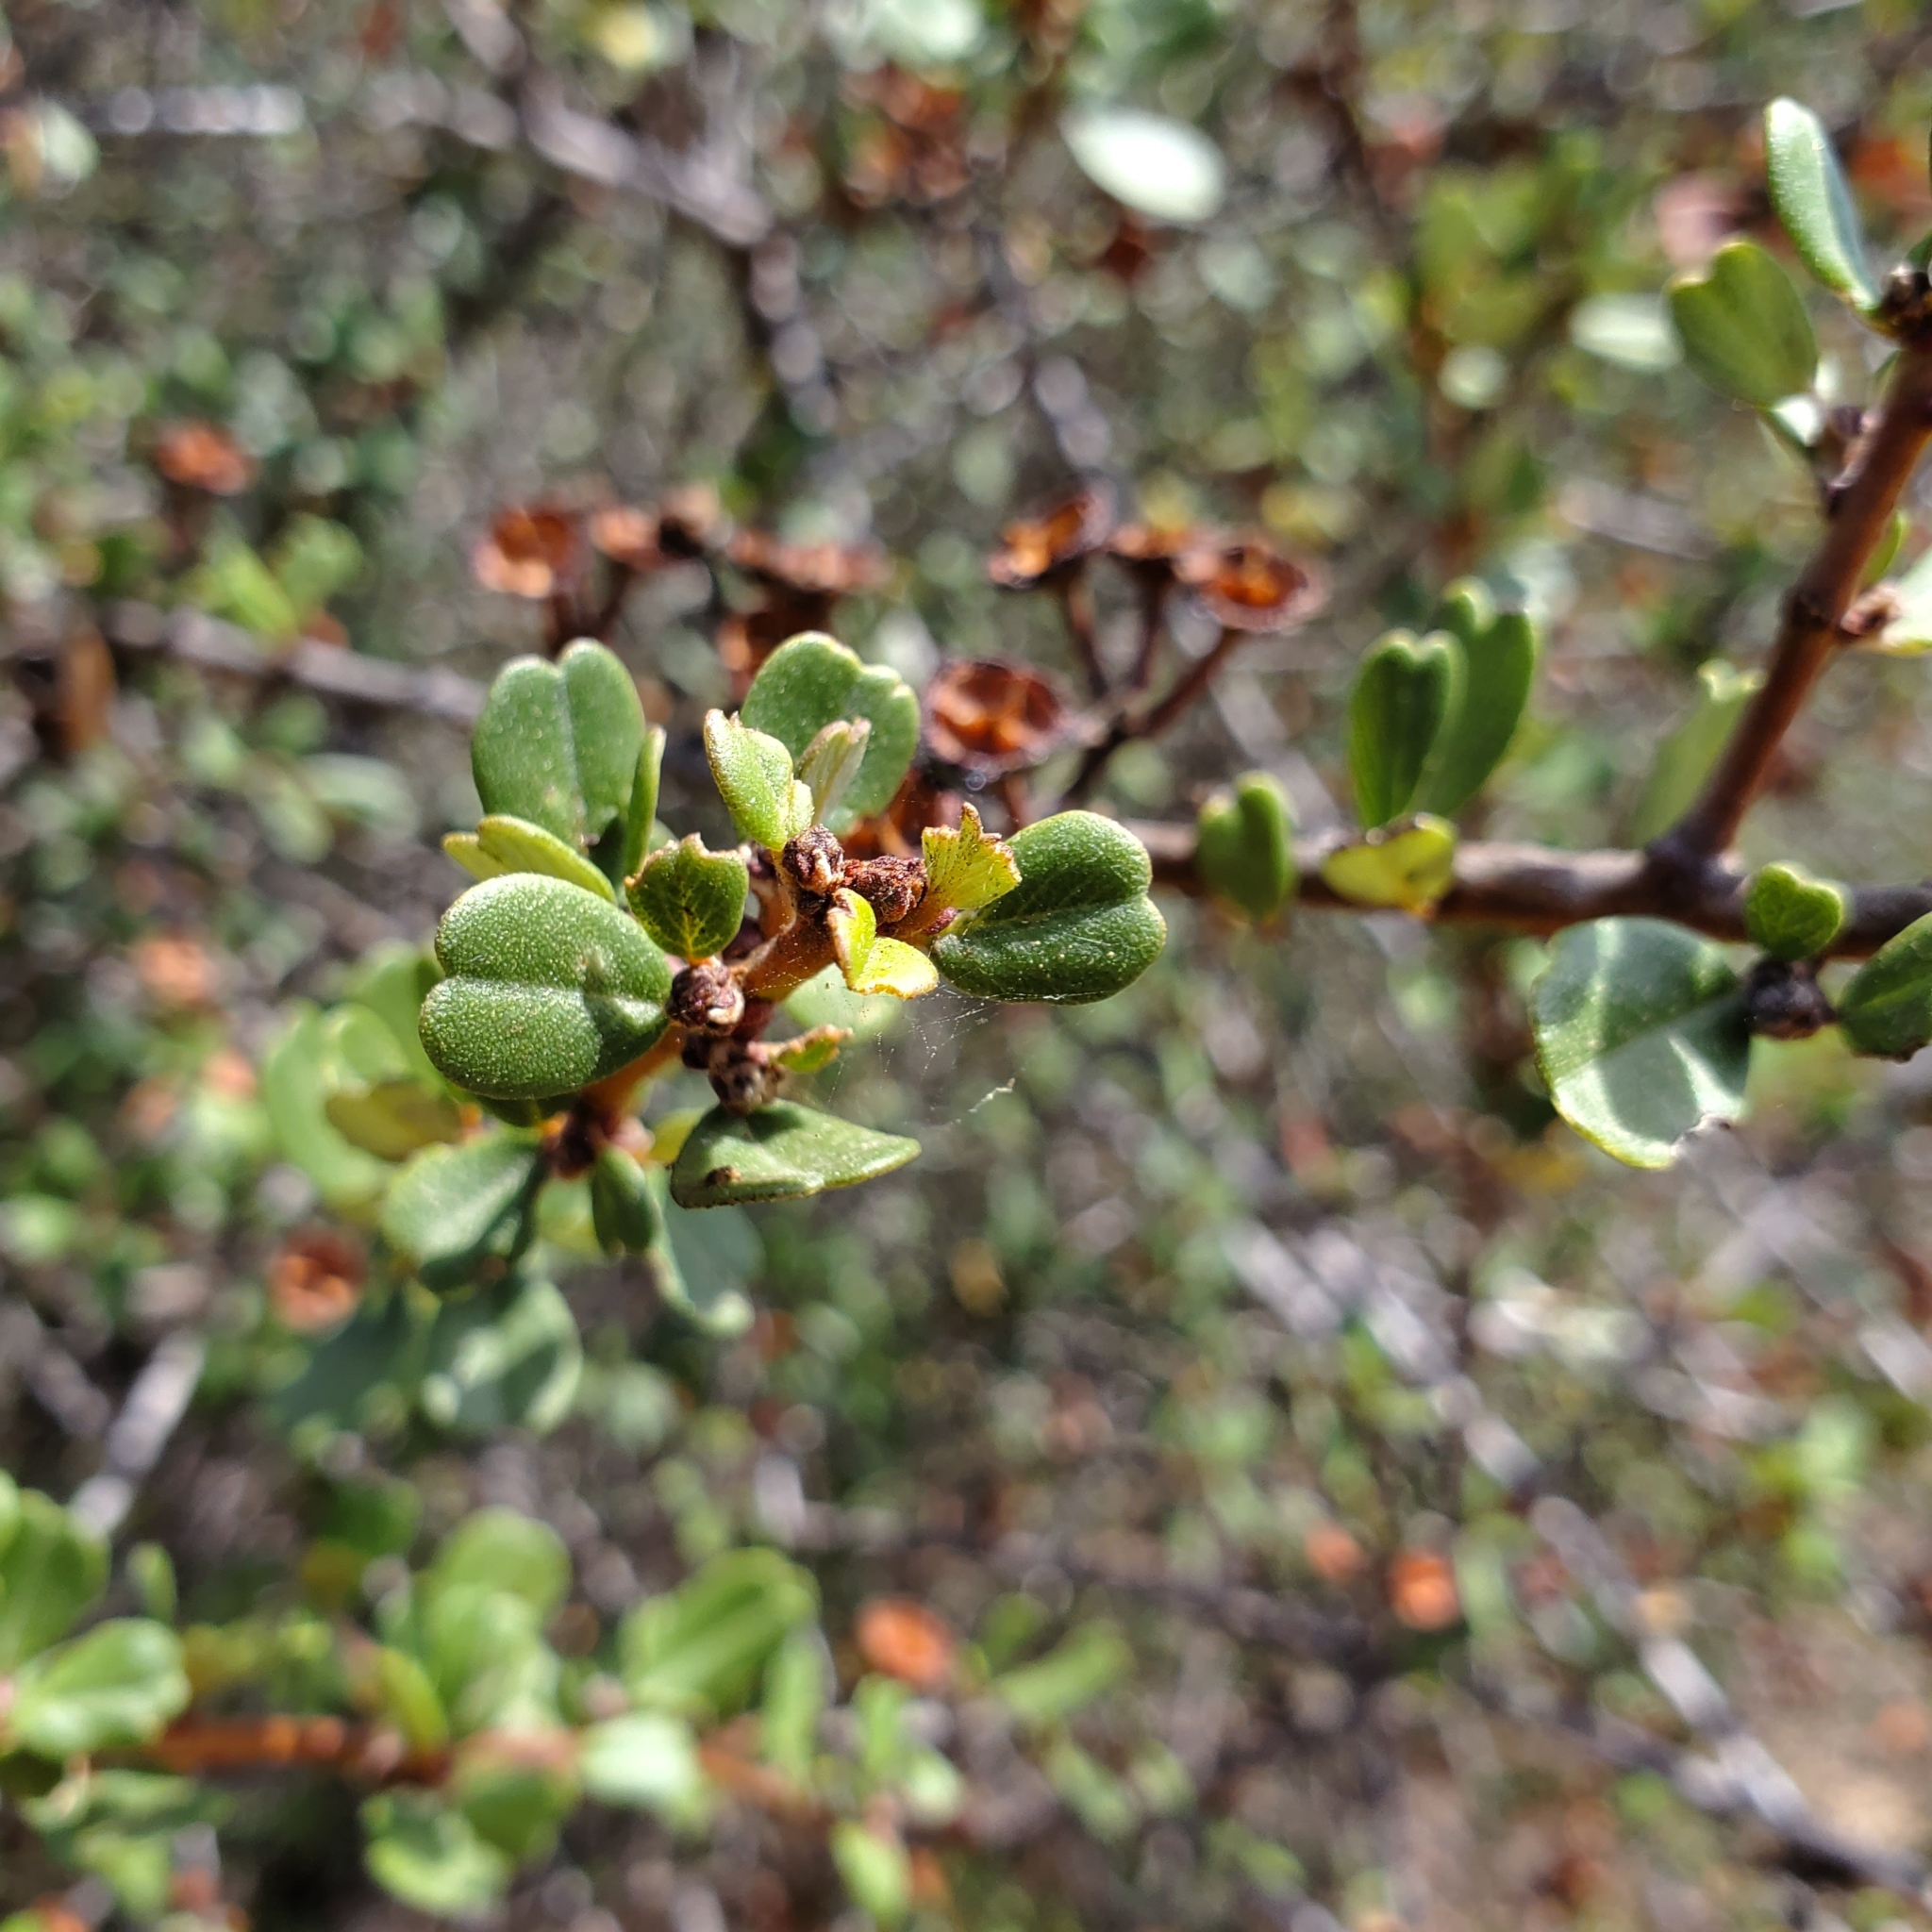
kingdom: Plantae
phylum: Tracheophyta
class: Magnoliopsida
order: Rosales
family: Rhamnaceae
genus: Ceanothus
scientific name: Ceanothus megacarpus
